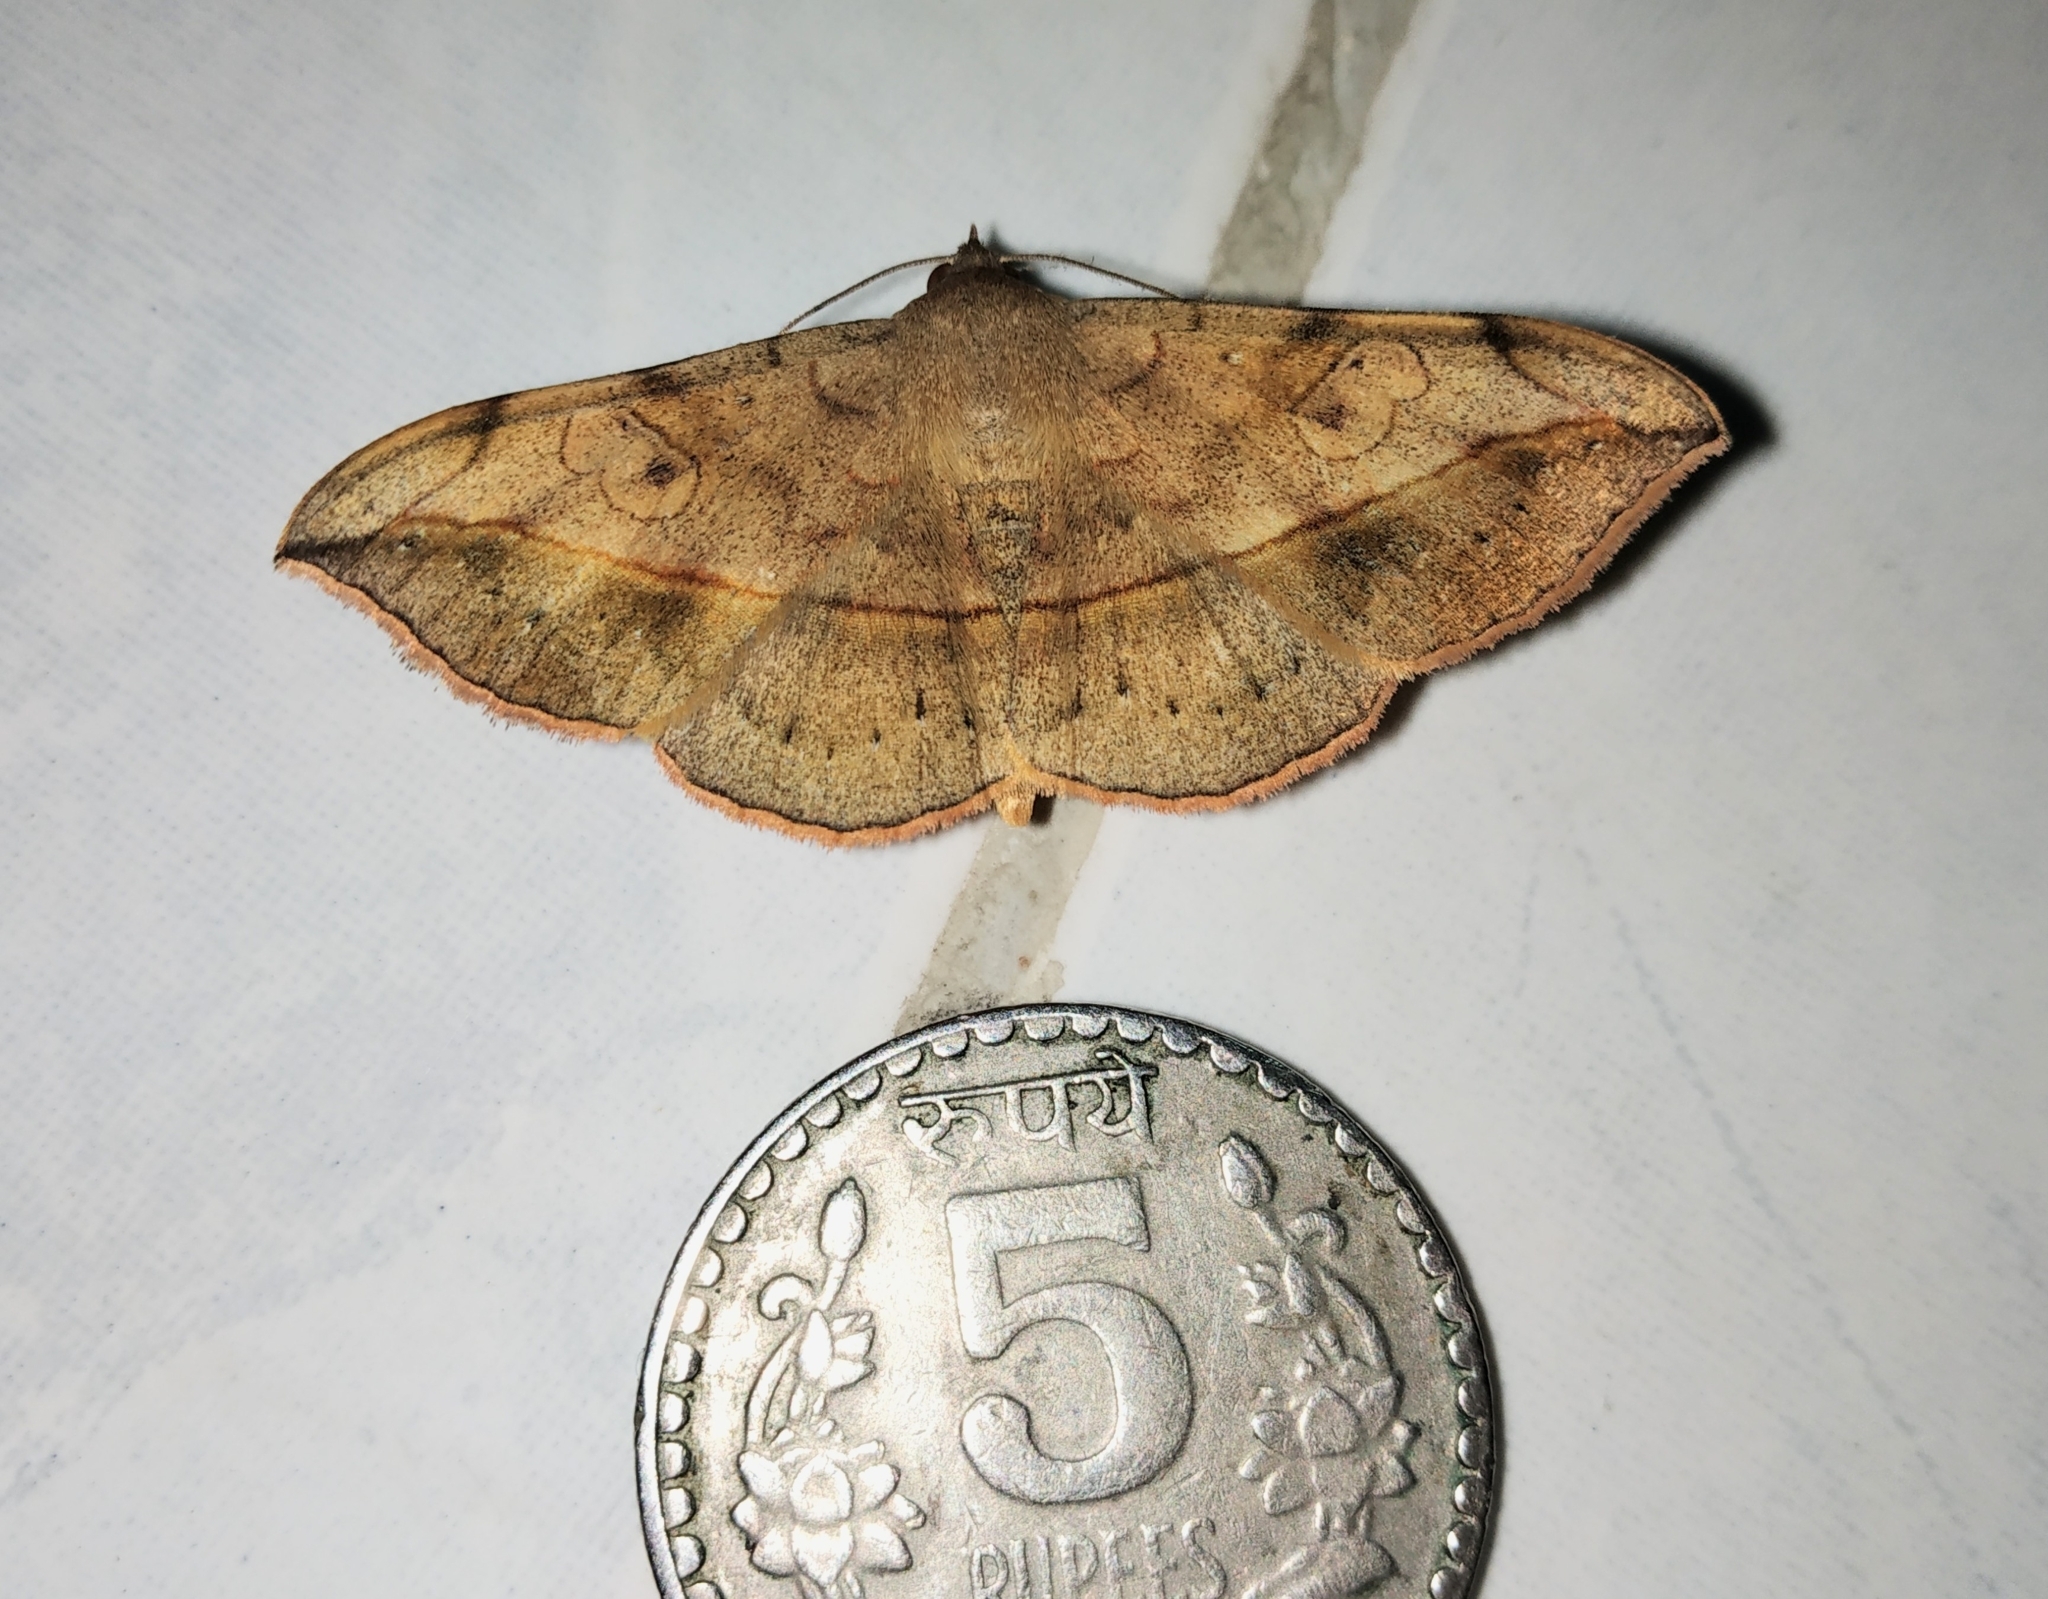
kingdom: Animalia
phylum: Arthropoda
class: Insecta
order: Lepidoptera
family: Erebidae
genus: Anticarsia
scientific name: Anticarsia irrorata
